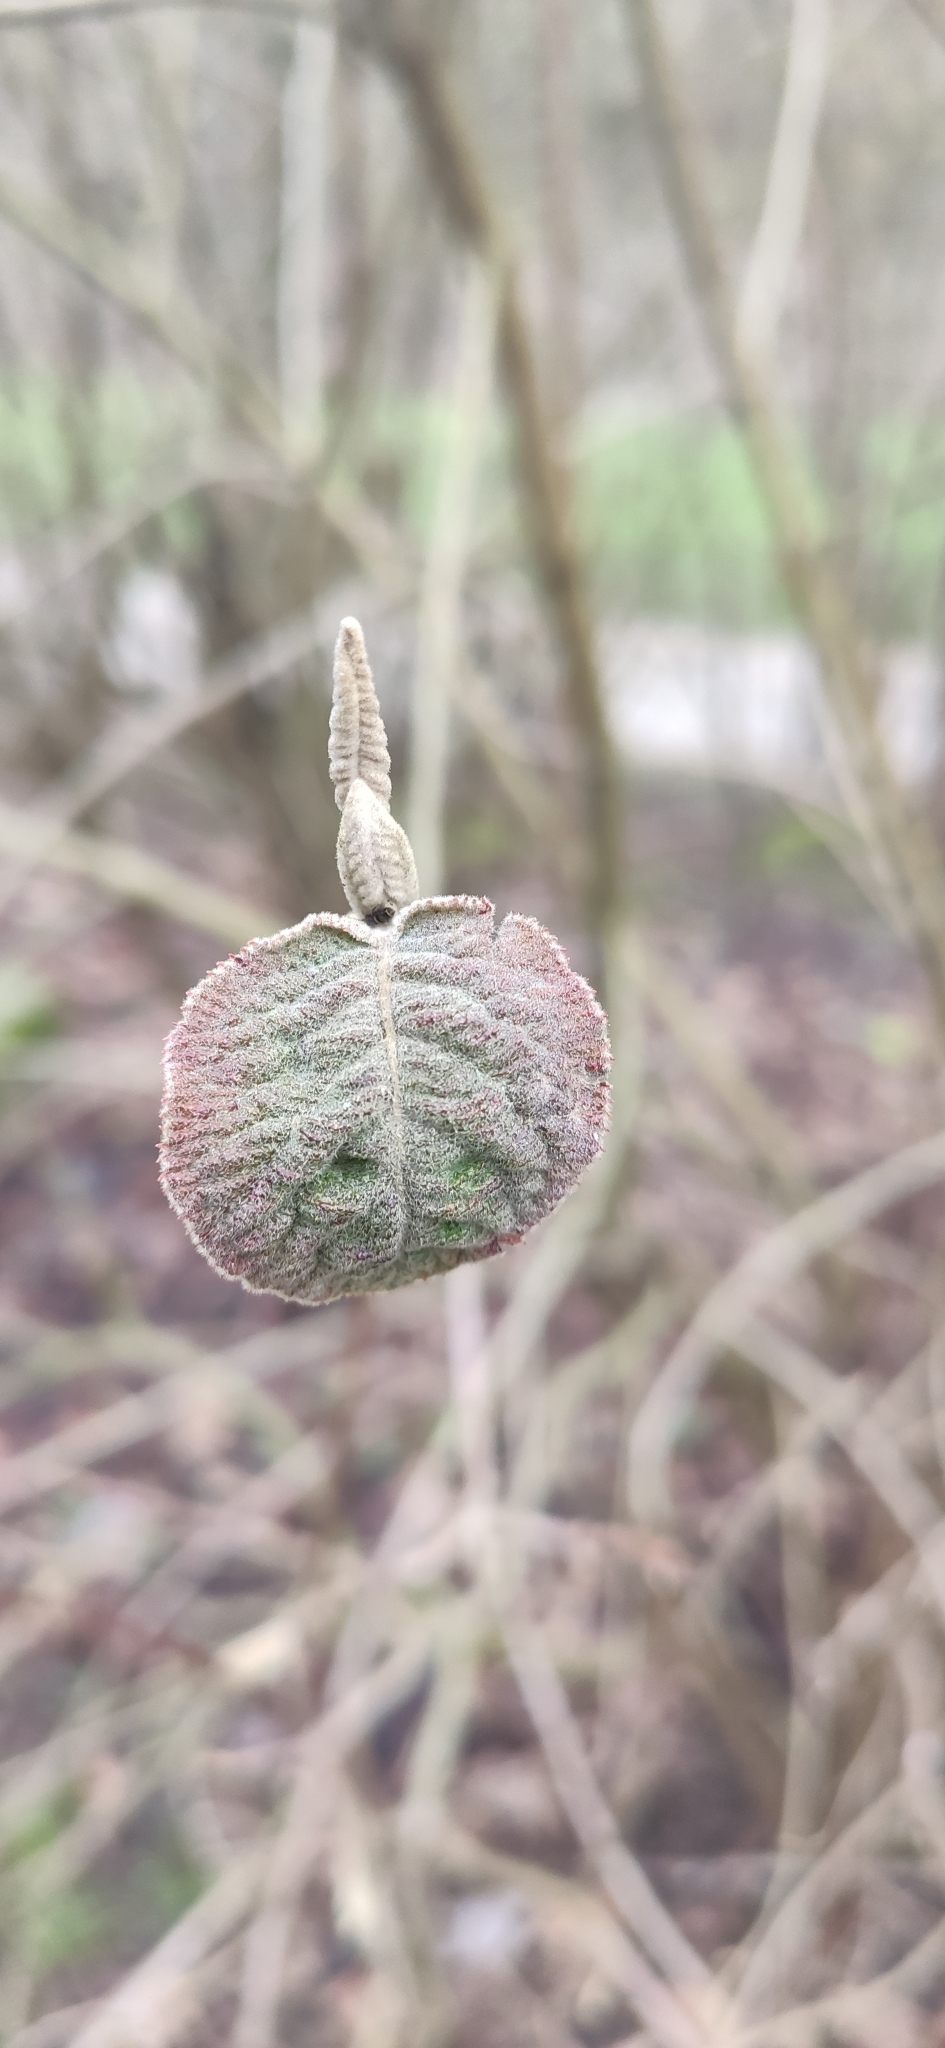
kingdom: Plantae
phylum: Tracheophyta
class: Magnoliopsida
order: Dipsacales
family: Viburnaceae
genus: Viburnum
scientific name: Viburnum lantana
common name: Wayfaring tree
